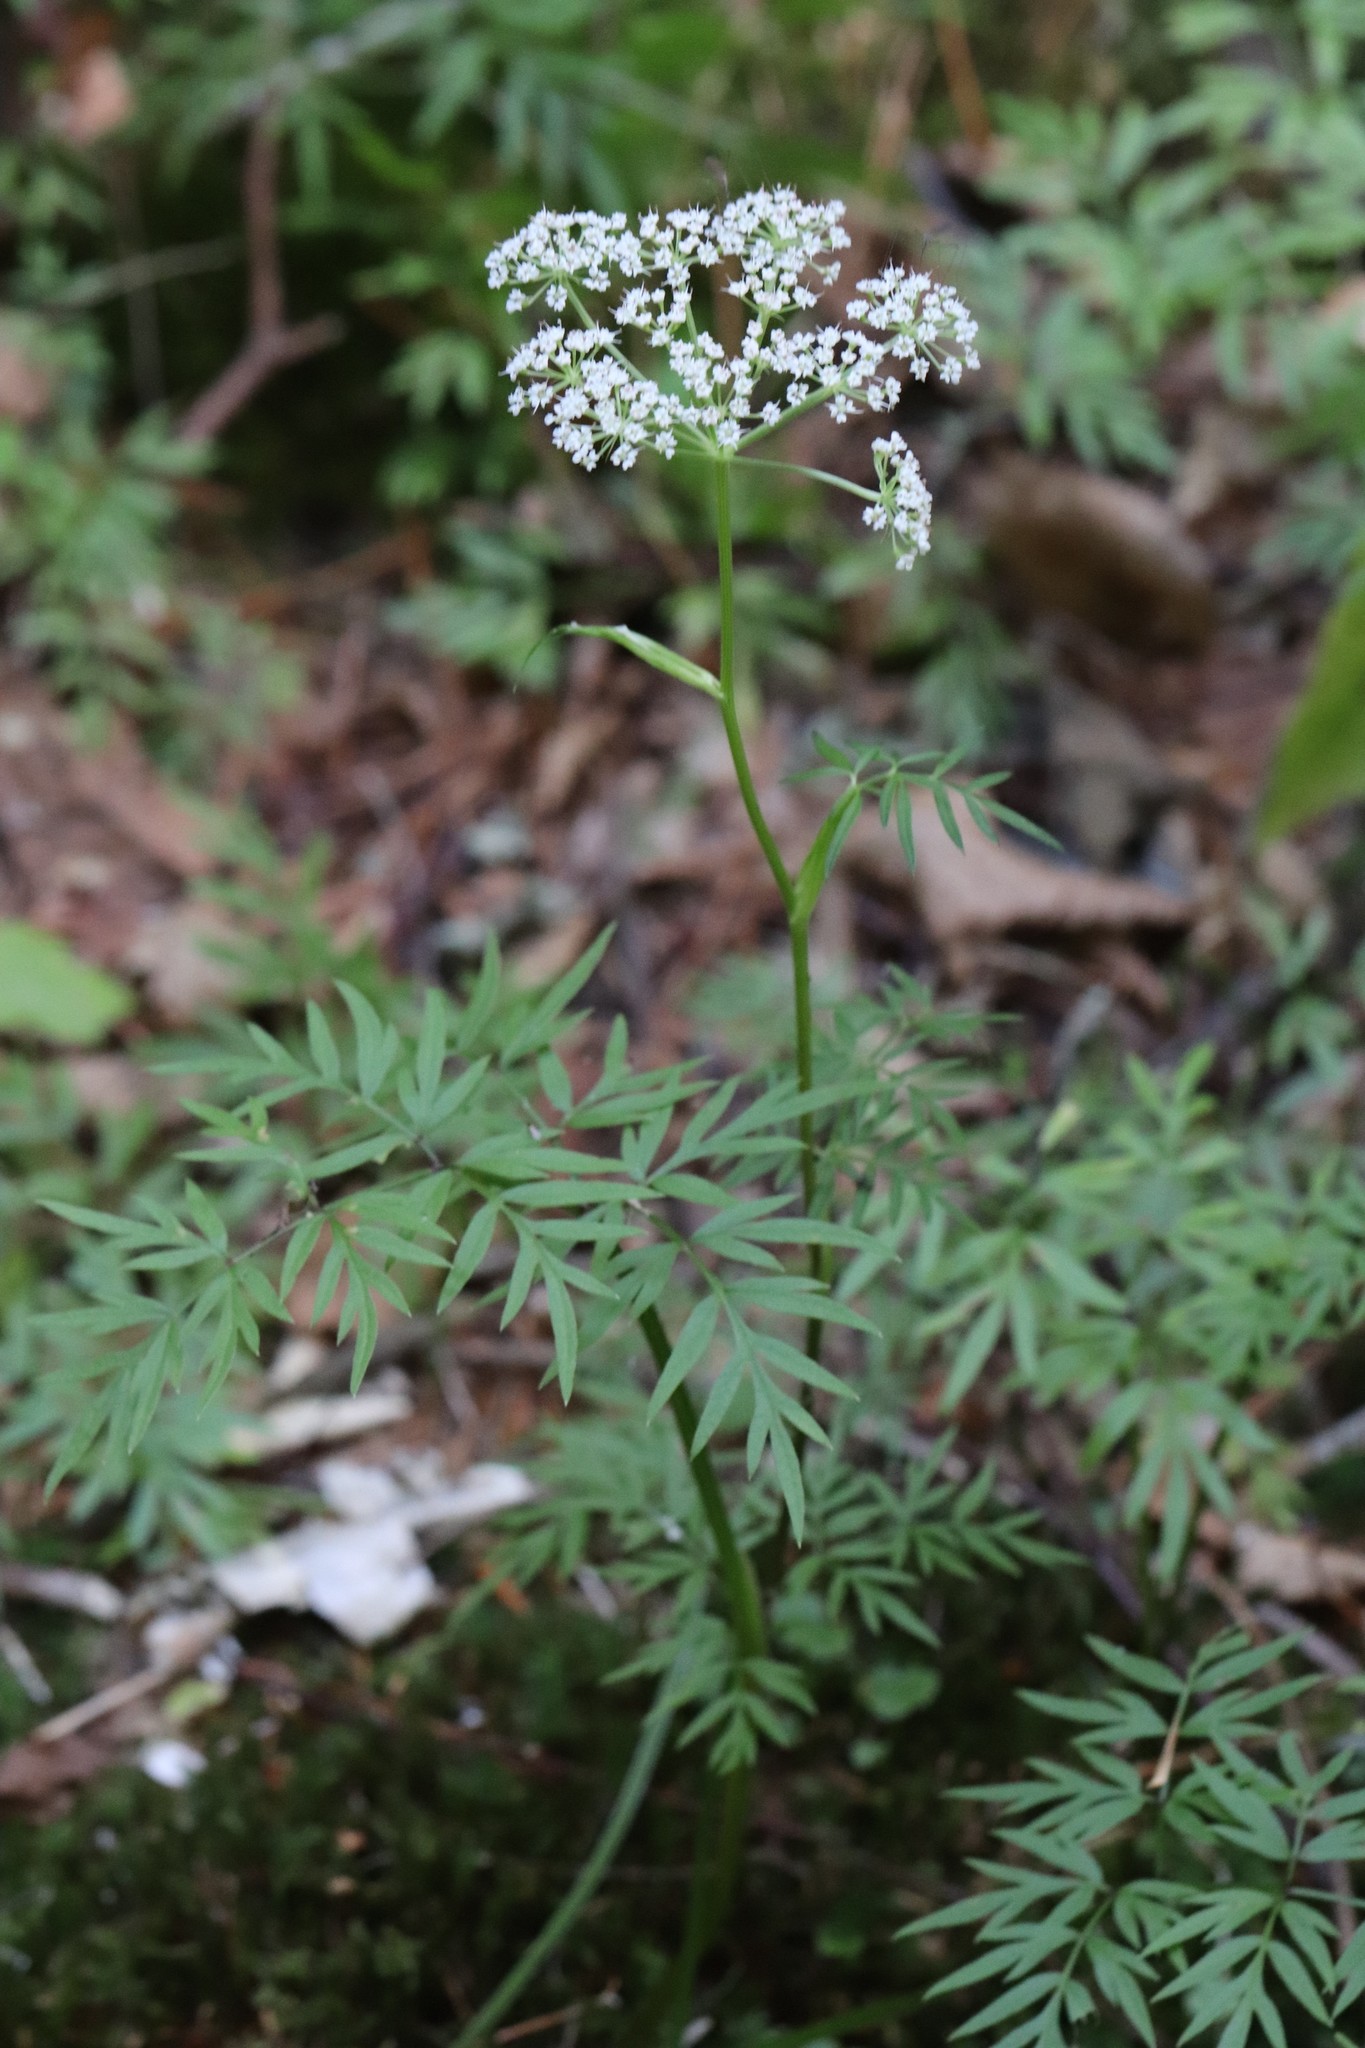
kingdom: Plantae
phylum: Tracheophyta
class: Magnoliopsida
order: Apiales
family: Apiaceae
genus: Ostericum
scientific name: Ostericum maximowiczii
